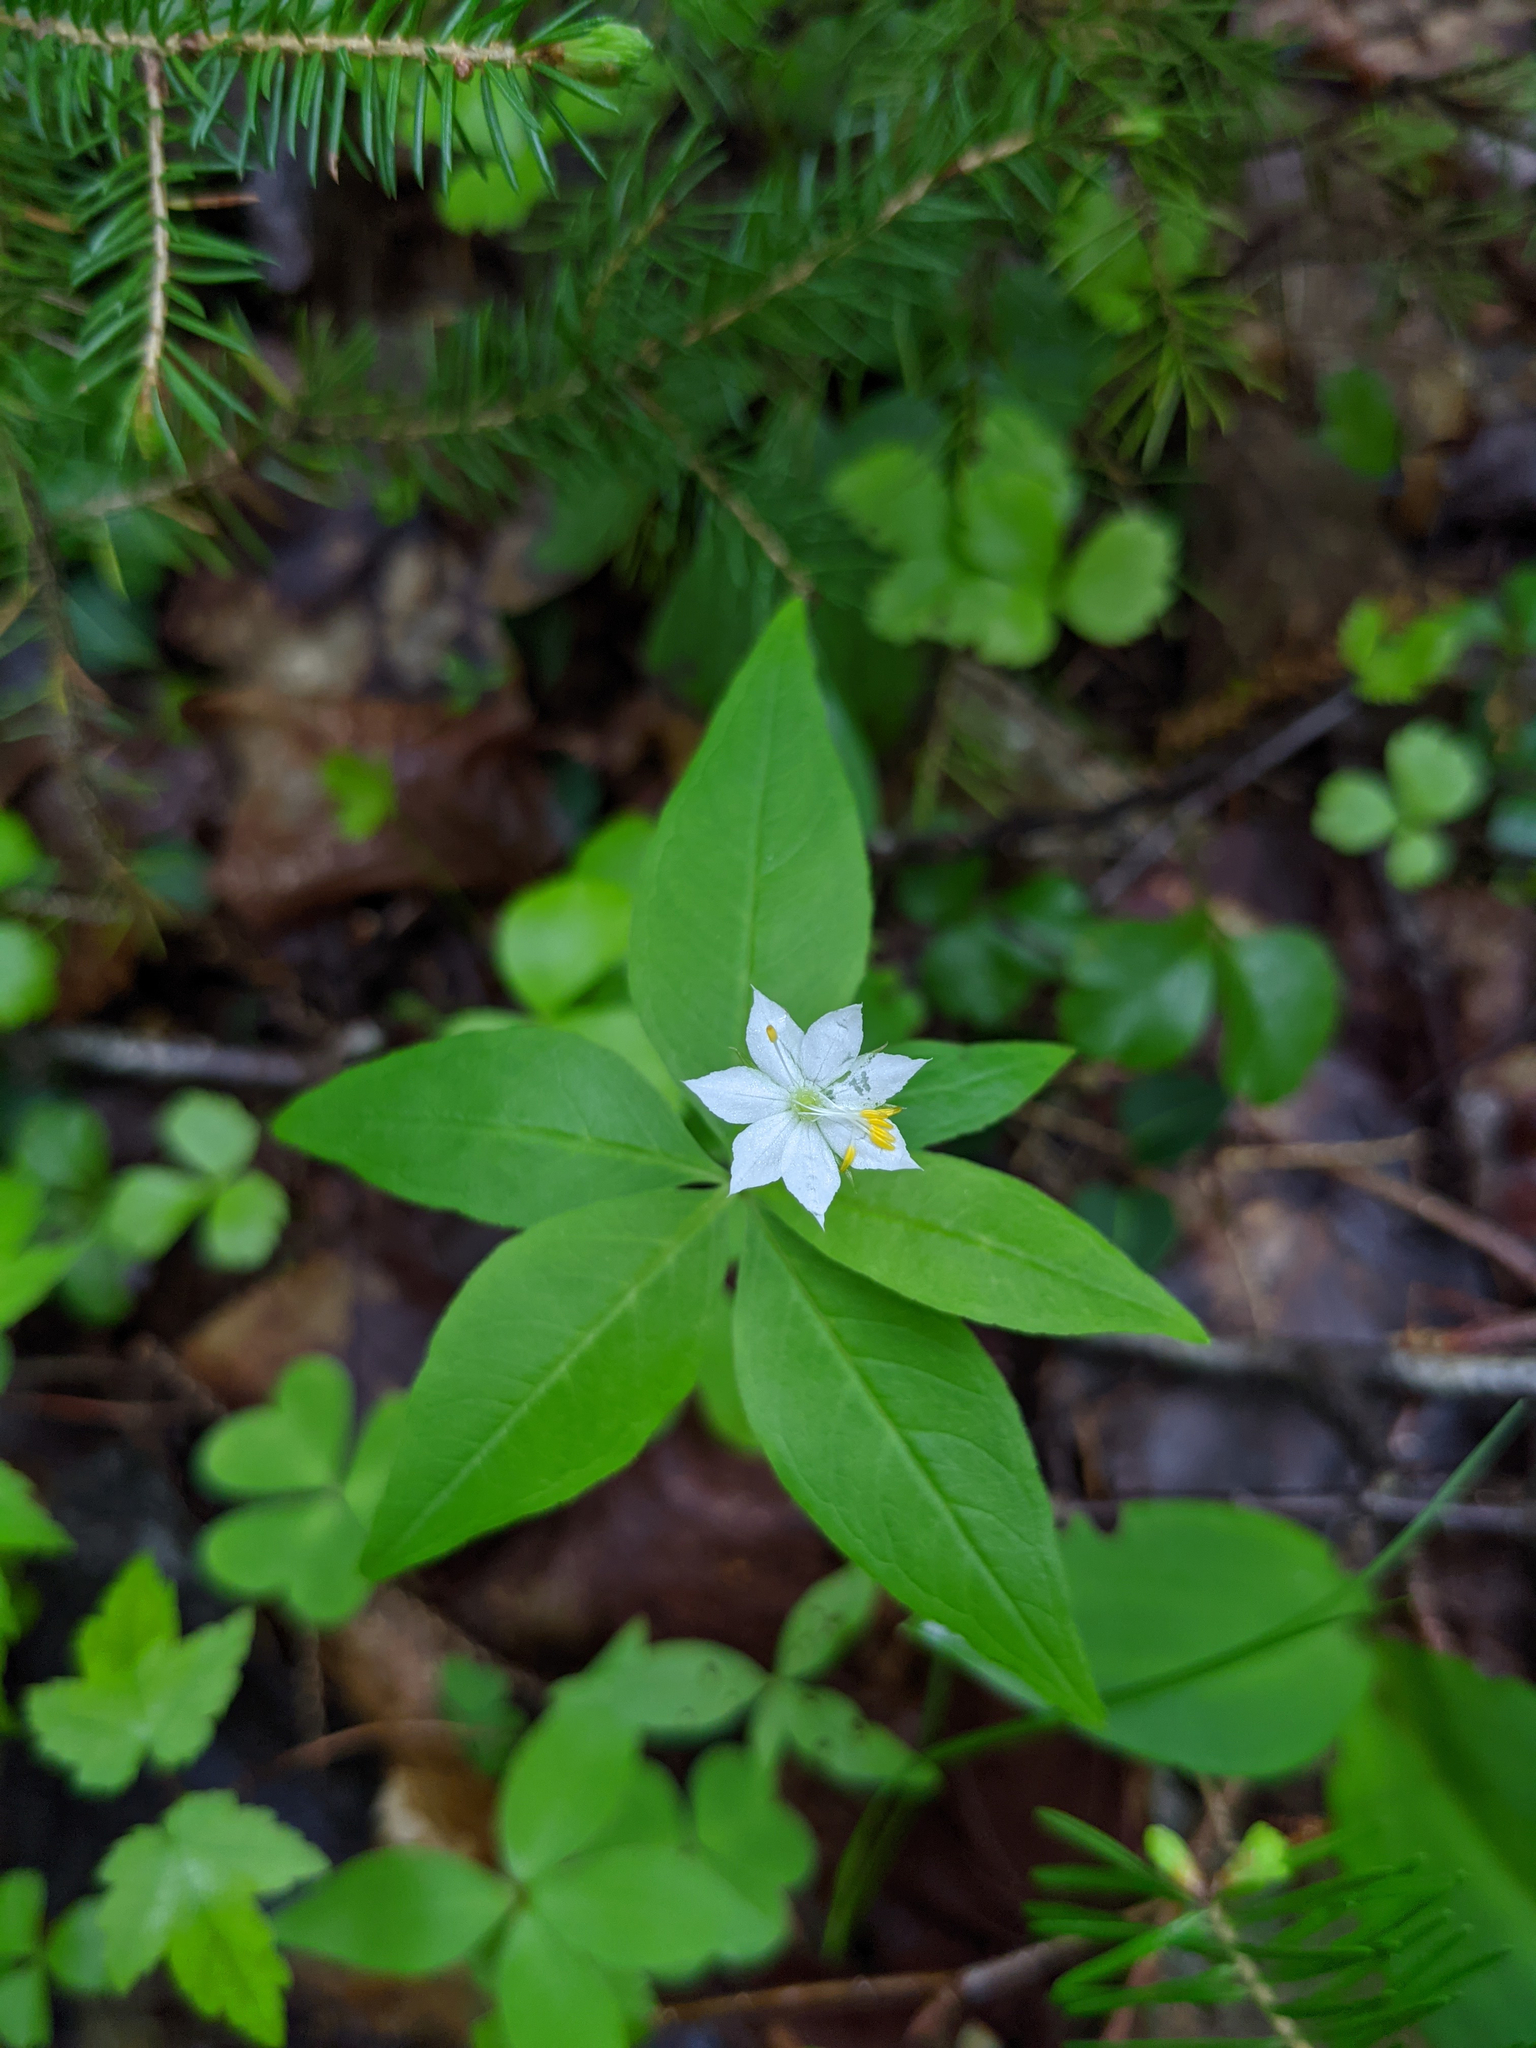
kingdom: Plantae
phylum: Tracheophyta
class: Magnoliopsida
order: Ericales
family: Primulaceae
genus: Lysimachia
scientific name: Lysimachia borealis
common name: American starflower
